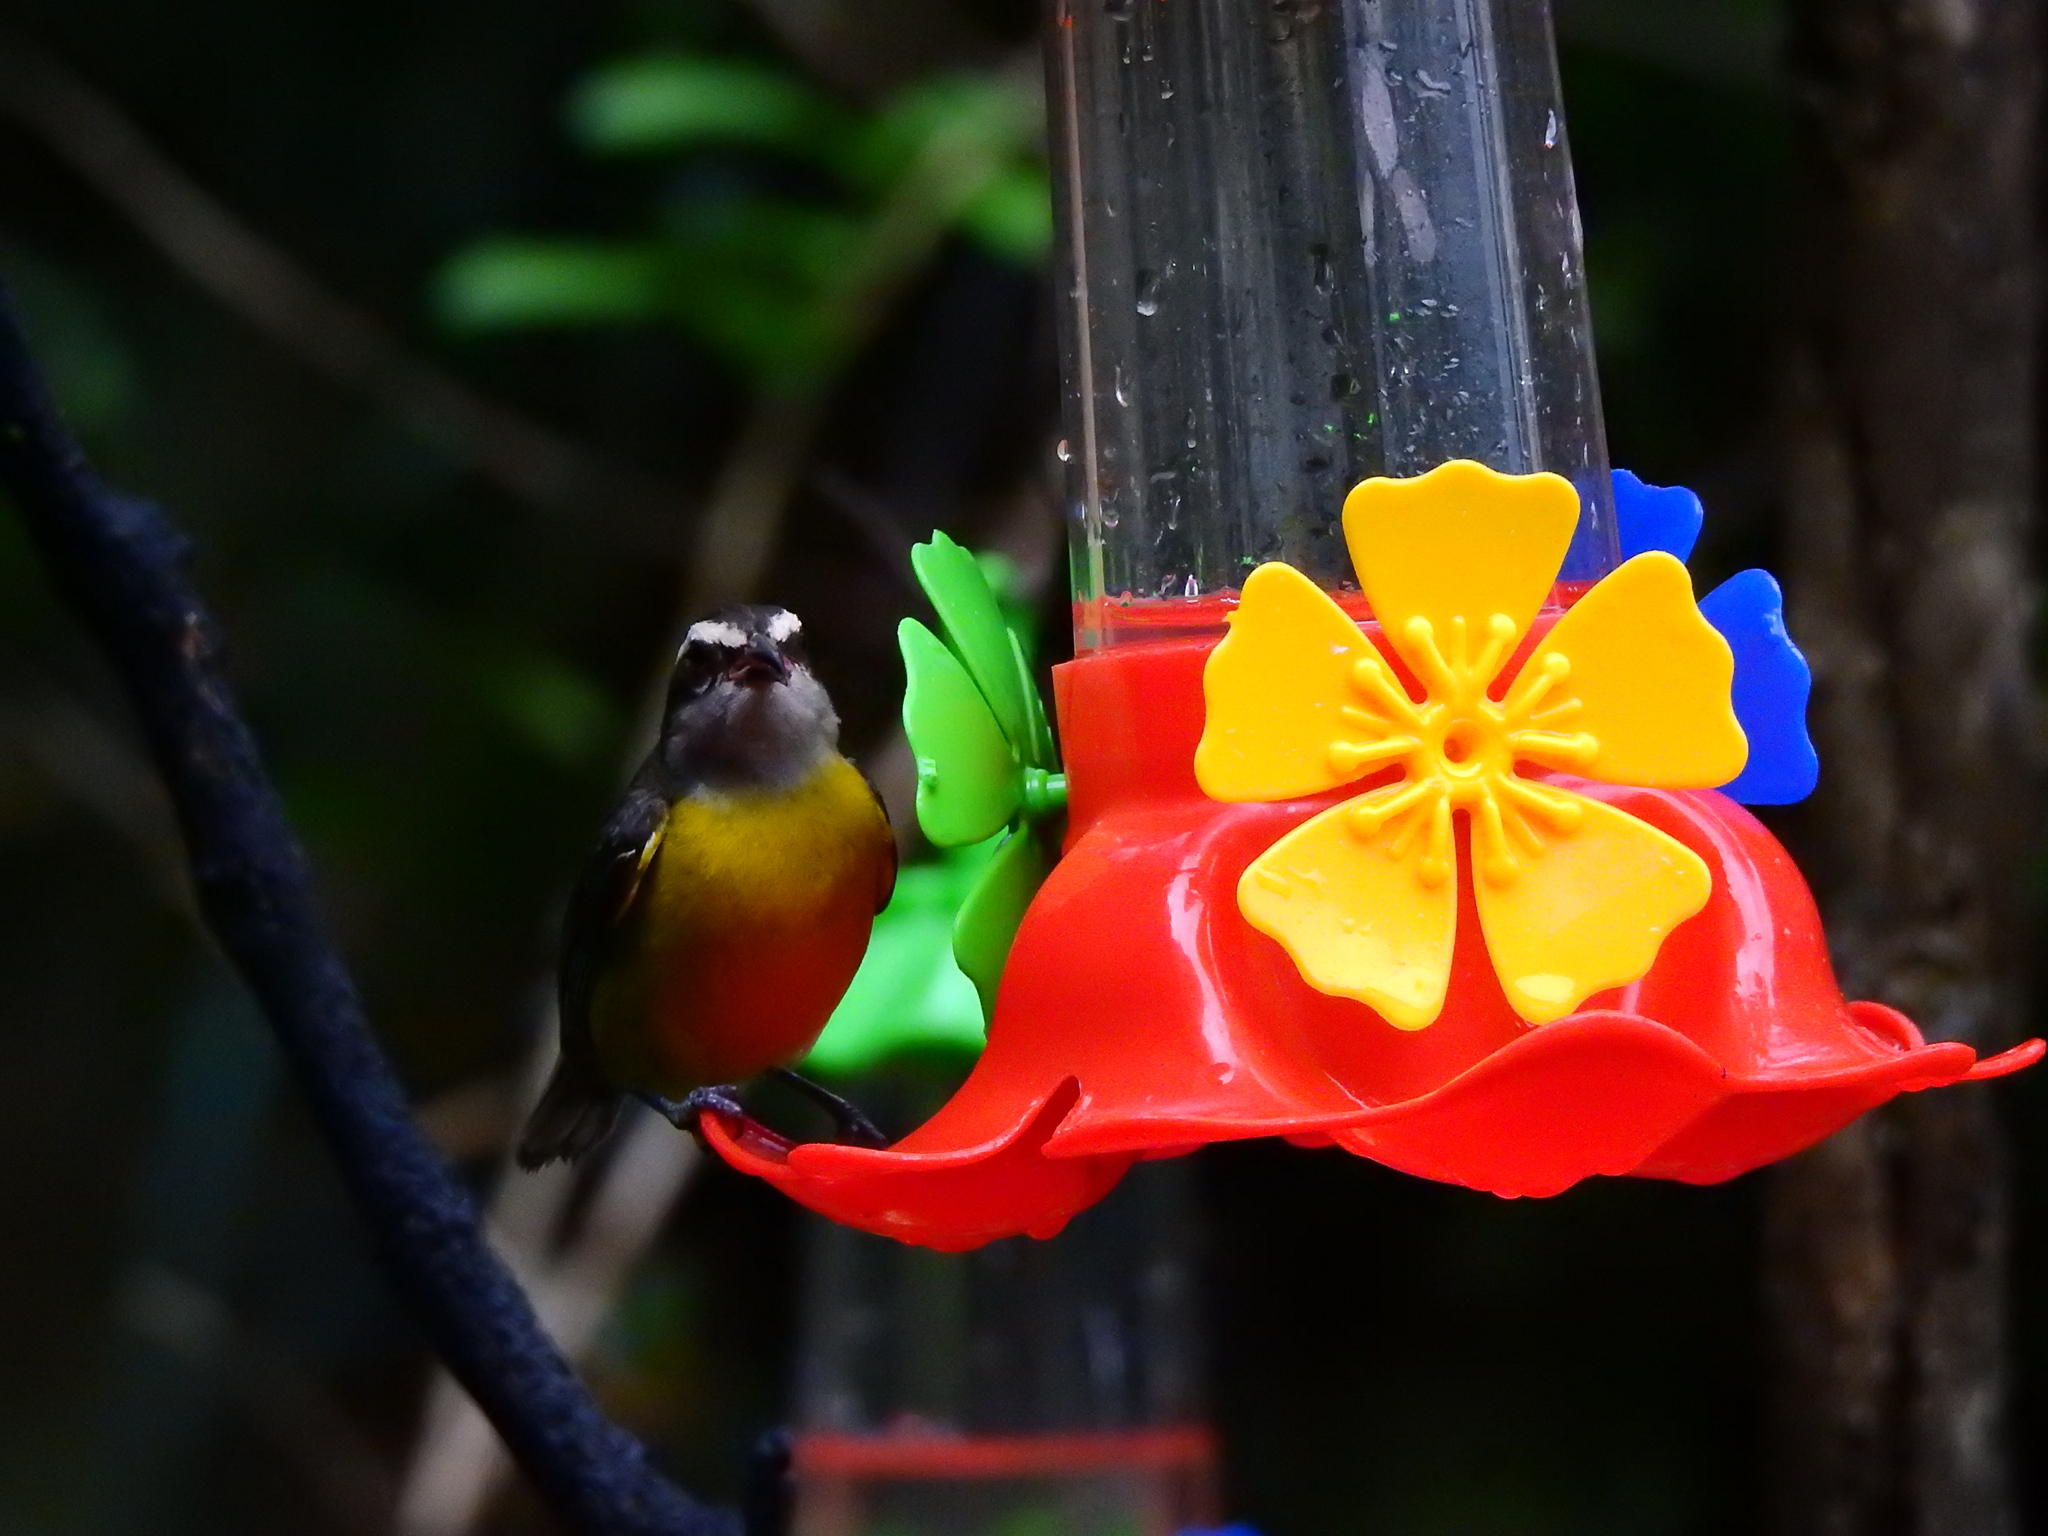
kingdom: Animalia
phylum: Chordata
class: Aves
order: Passeriformes
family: Thraupidae
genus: Coereba
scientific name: Coereba flaveola
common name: Bananaquit
